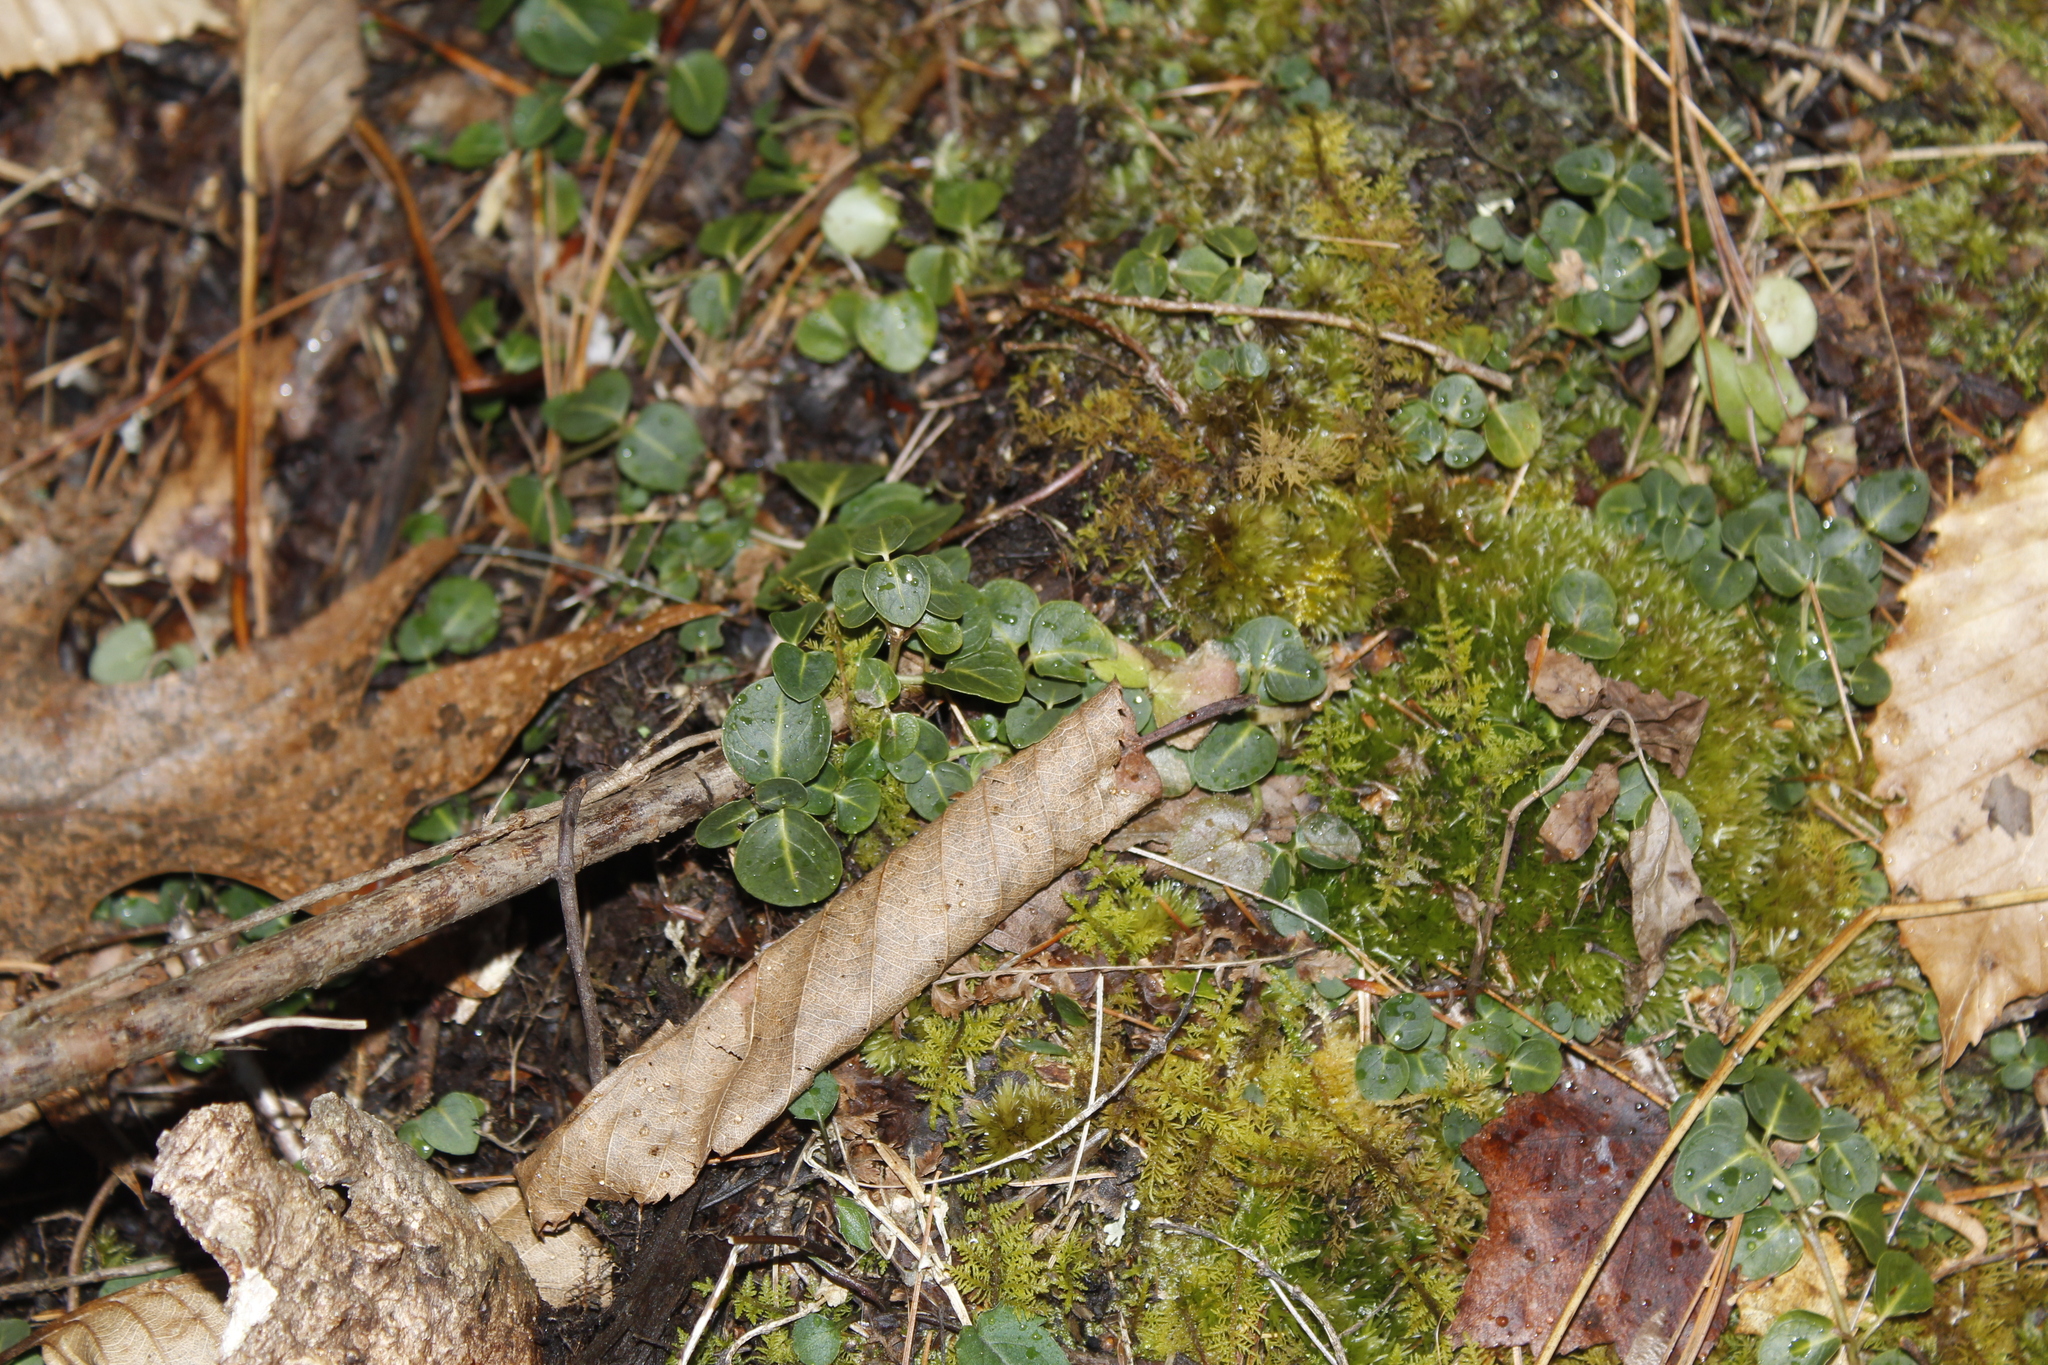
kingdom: Plantae
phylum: Tracheophyta
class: Magnoliopsida
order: Gentianales
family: Rubiaceae
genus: Mitchella
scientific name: Mitchella repens
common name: Partridge-berry
